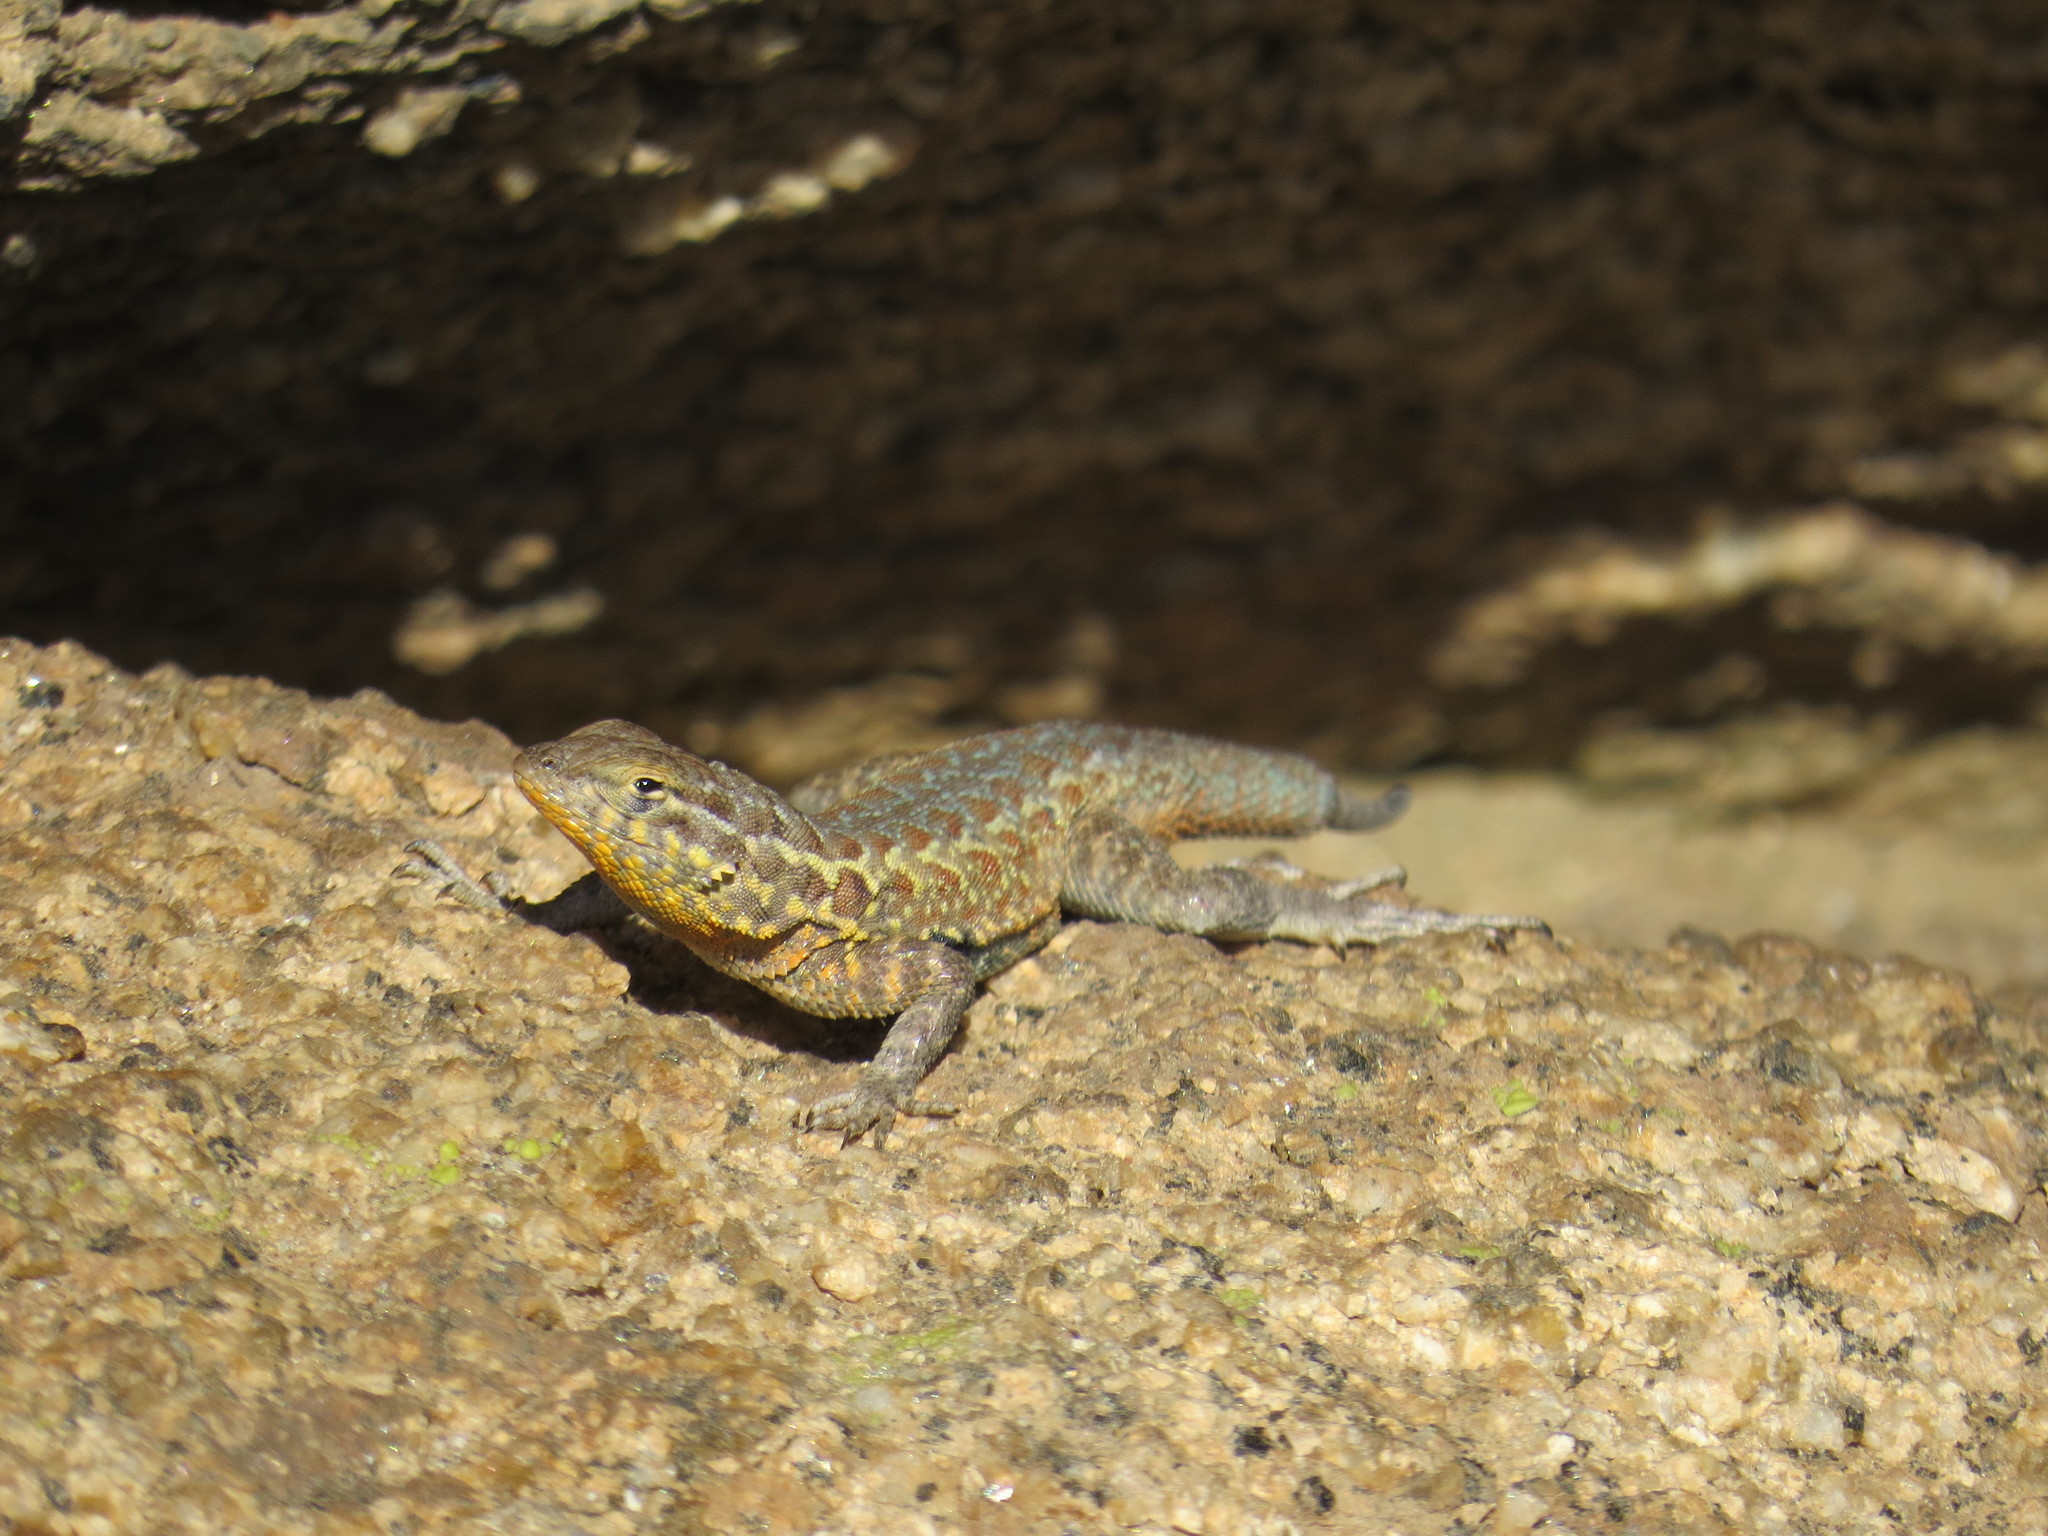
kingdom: Animalia
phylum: Chordata
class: Squamata
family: Phrynosomatidae
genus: Uta
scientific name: Uta stansburiana
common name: Side-blotched lizard
